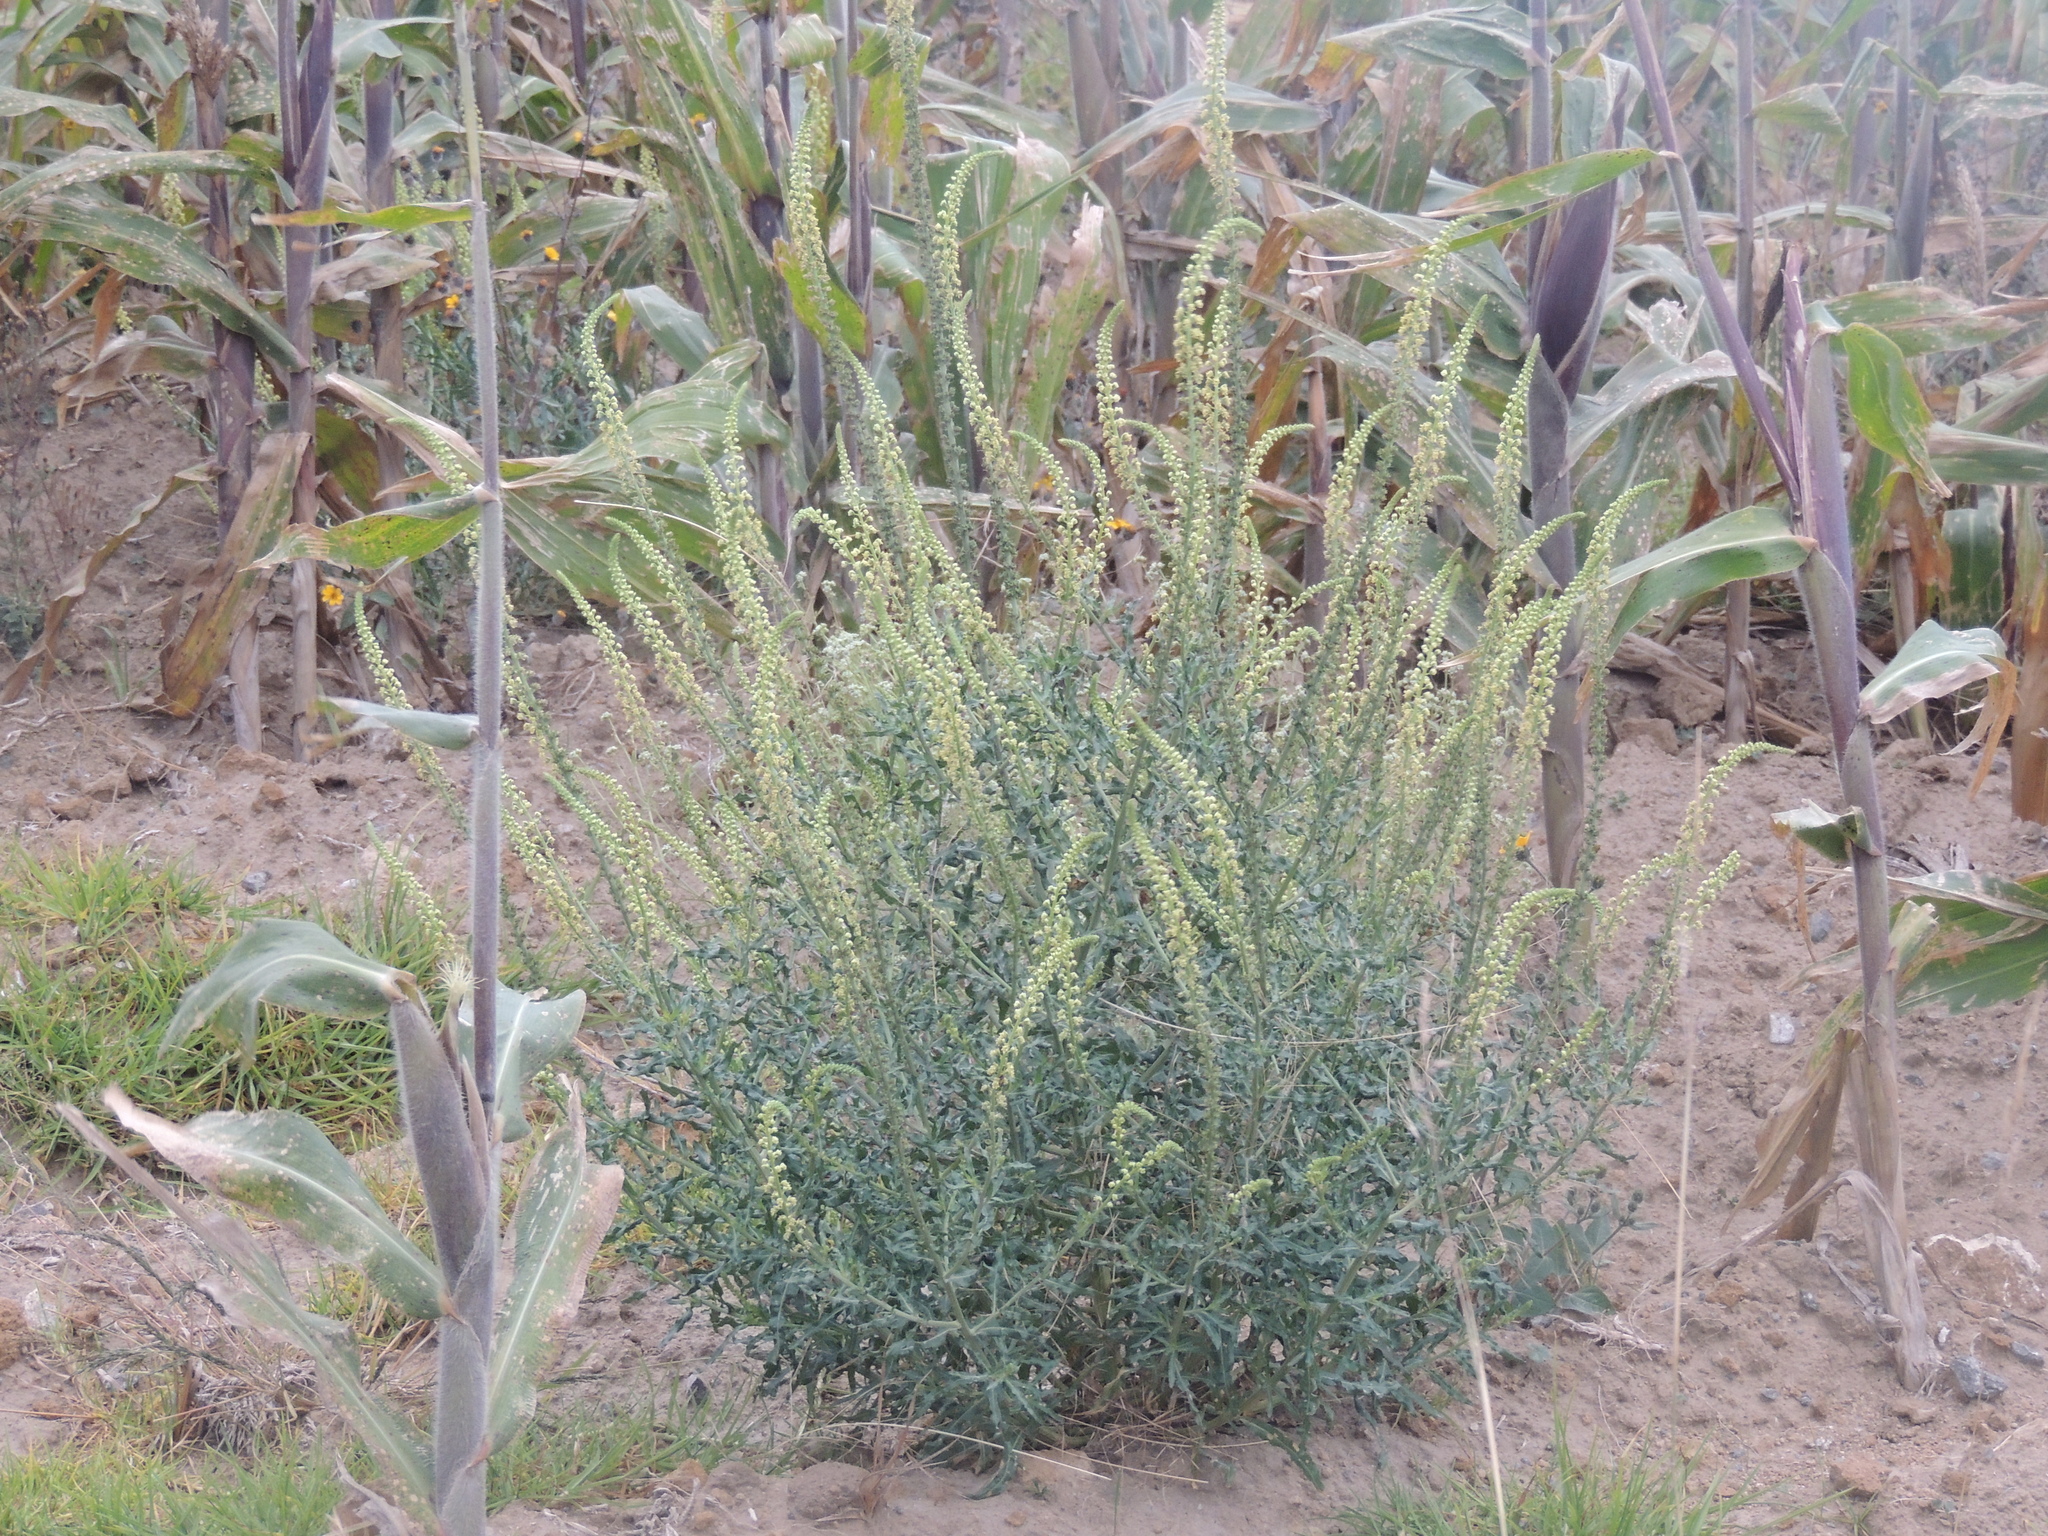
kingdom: Plantae
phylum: Tracheophyta
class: Magnoliopsida
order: Brassicales
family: Resedaceae
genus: Reseda
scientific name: Reseda luteola
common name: Weld
